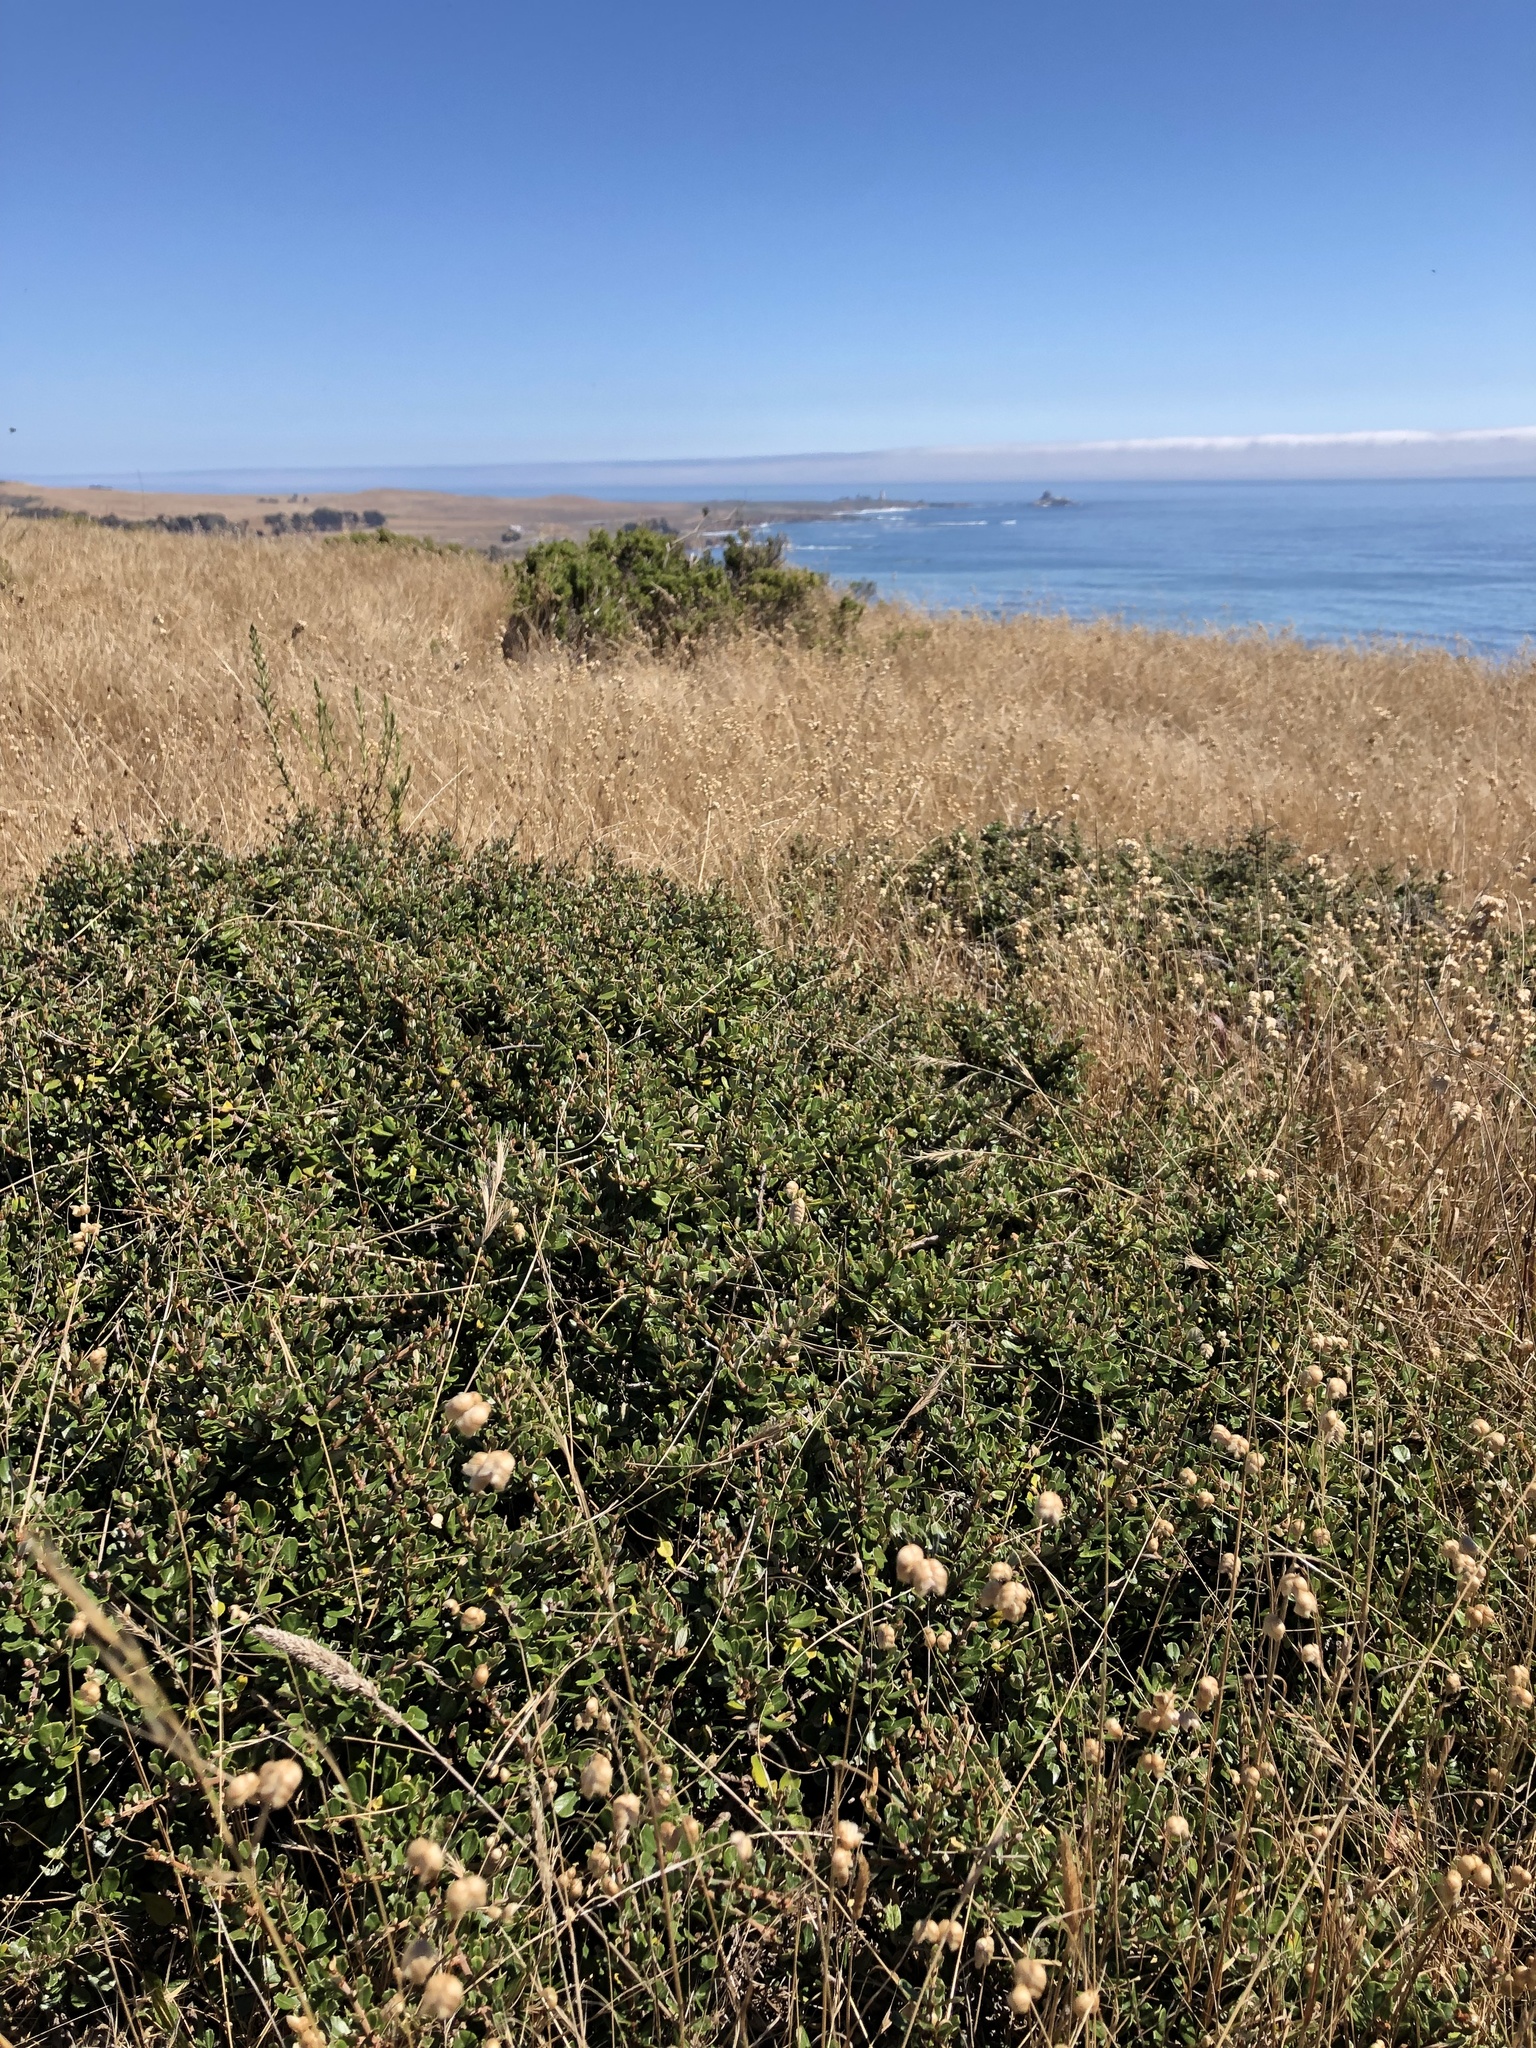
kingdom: Plantae
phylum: Tracheophyta
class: Magnoliopsida
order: Rosales
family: Rhamnaceae
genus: Ceanothus
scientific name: Ceanothus maritimus
